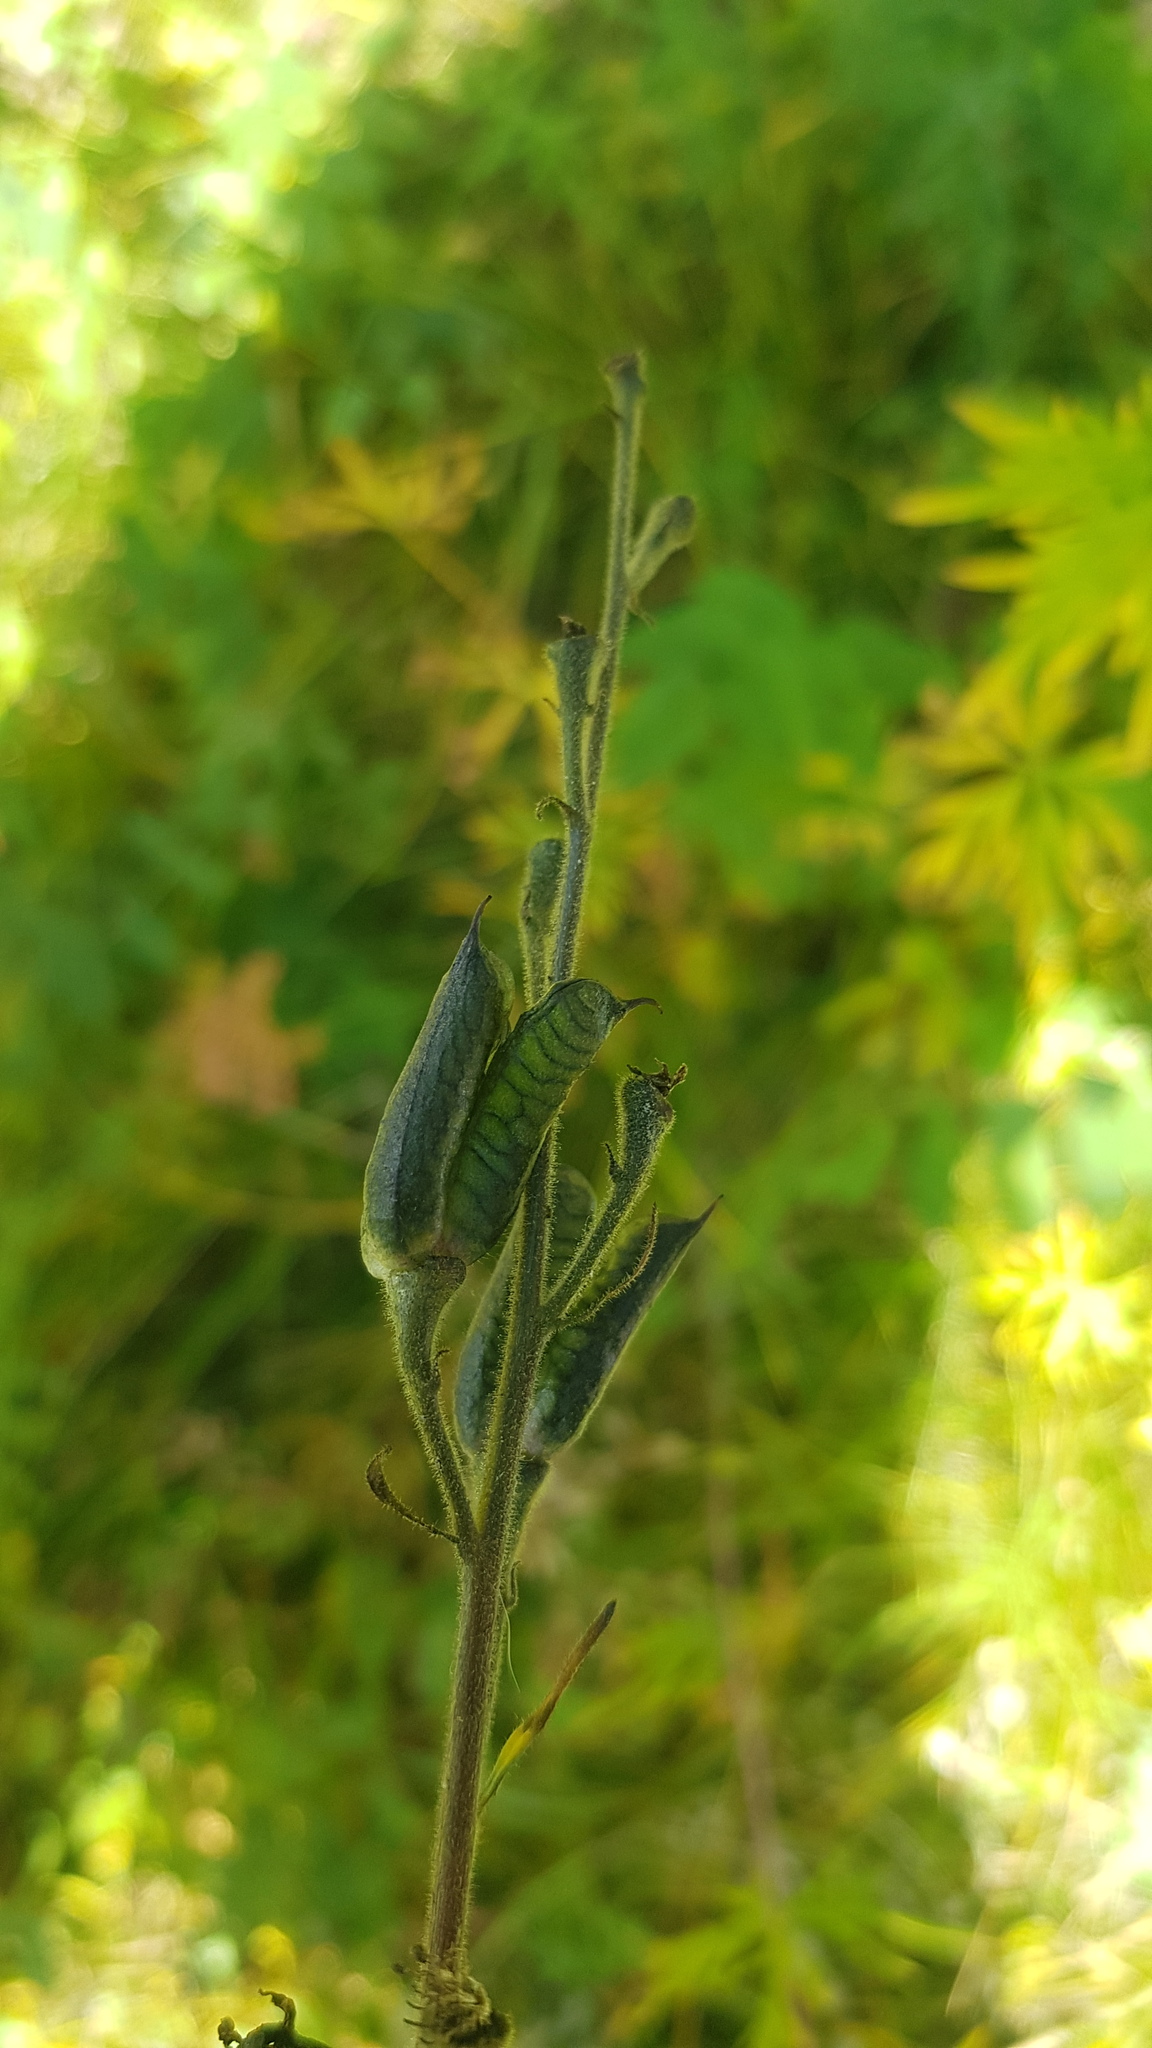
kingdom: Plantae
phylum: Tracheophyta
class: Magnoliopsida
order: Ranunculales
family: Ranunculaceae
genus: Aconitum
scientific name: Aconitum septentrionale
